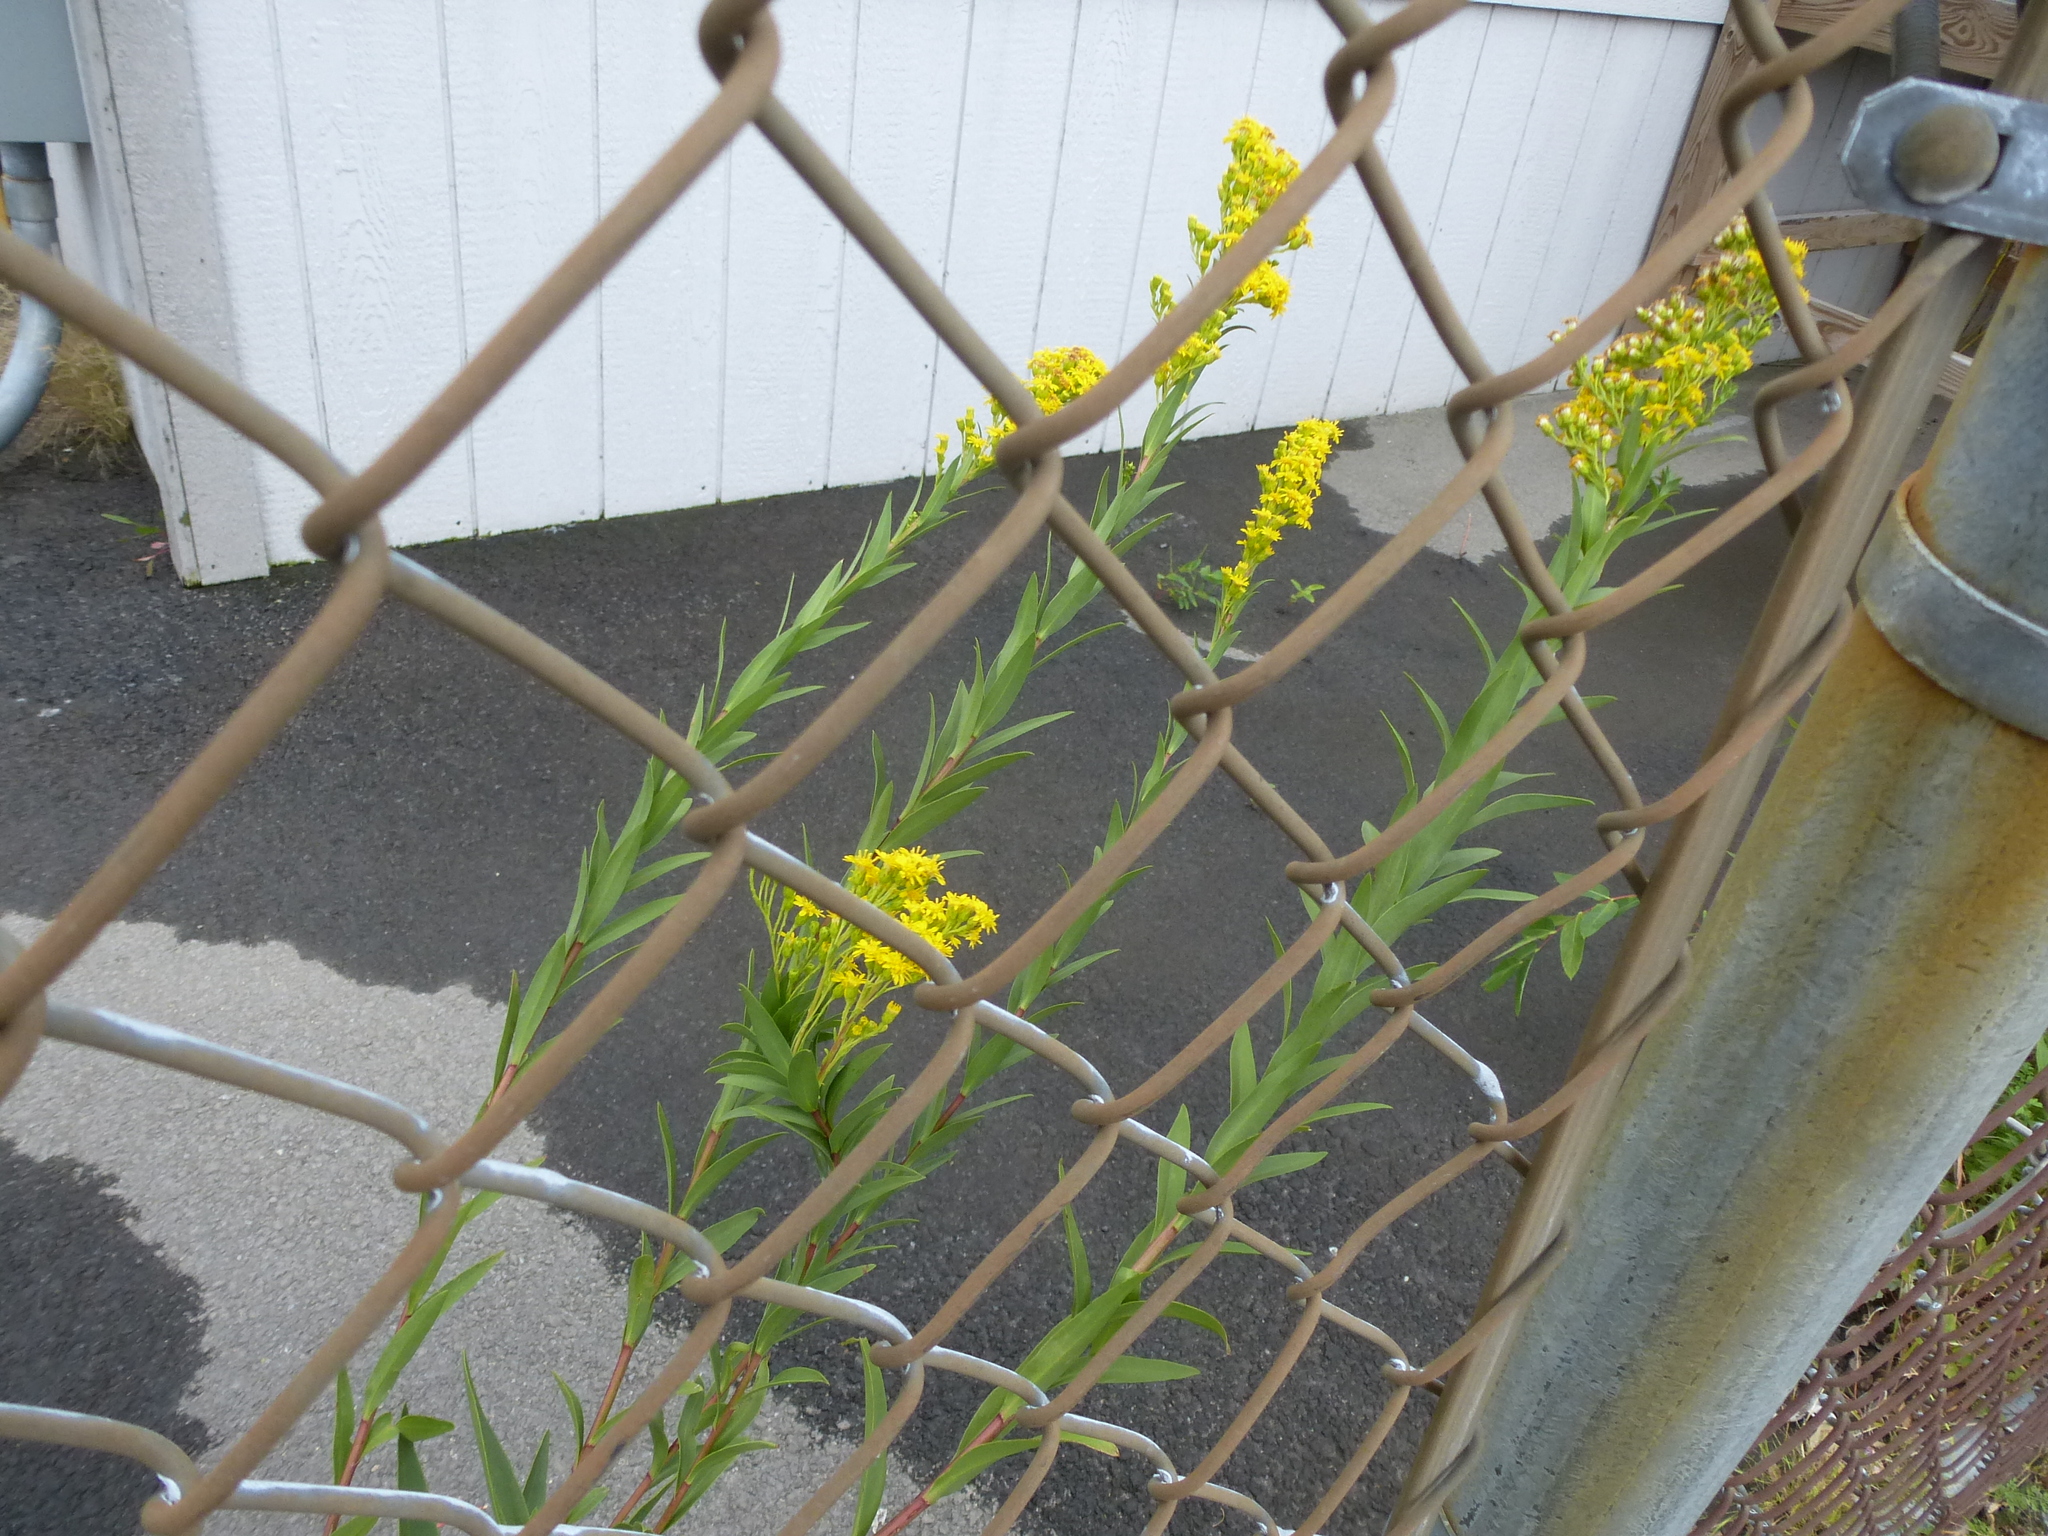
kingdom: Plantae
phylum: Tracheophyta
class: Magnoliopsida
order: Asterales
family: Asteraceae
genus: Solidago
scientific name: Solidago sempervirens
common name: Salt-marsh goldenrod
